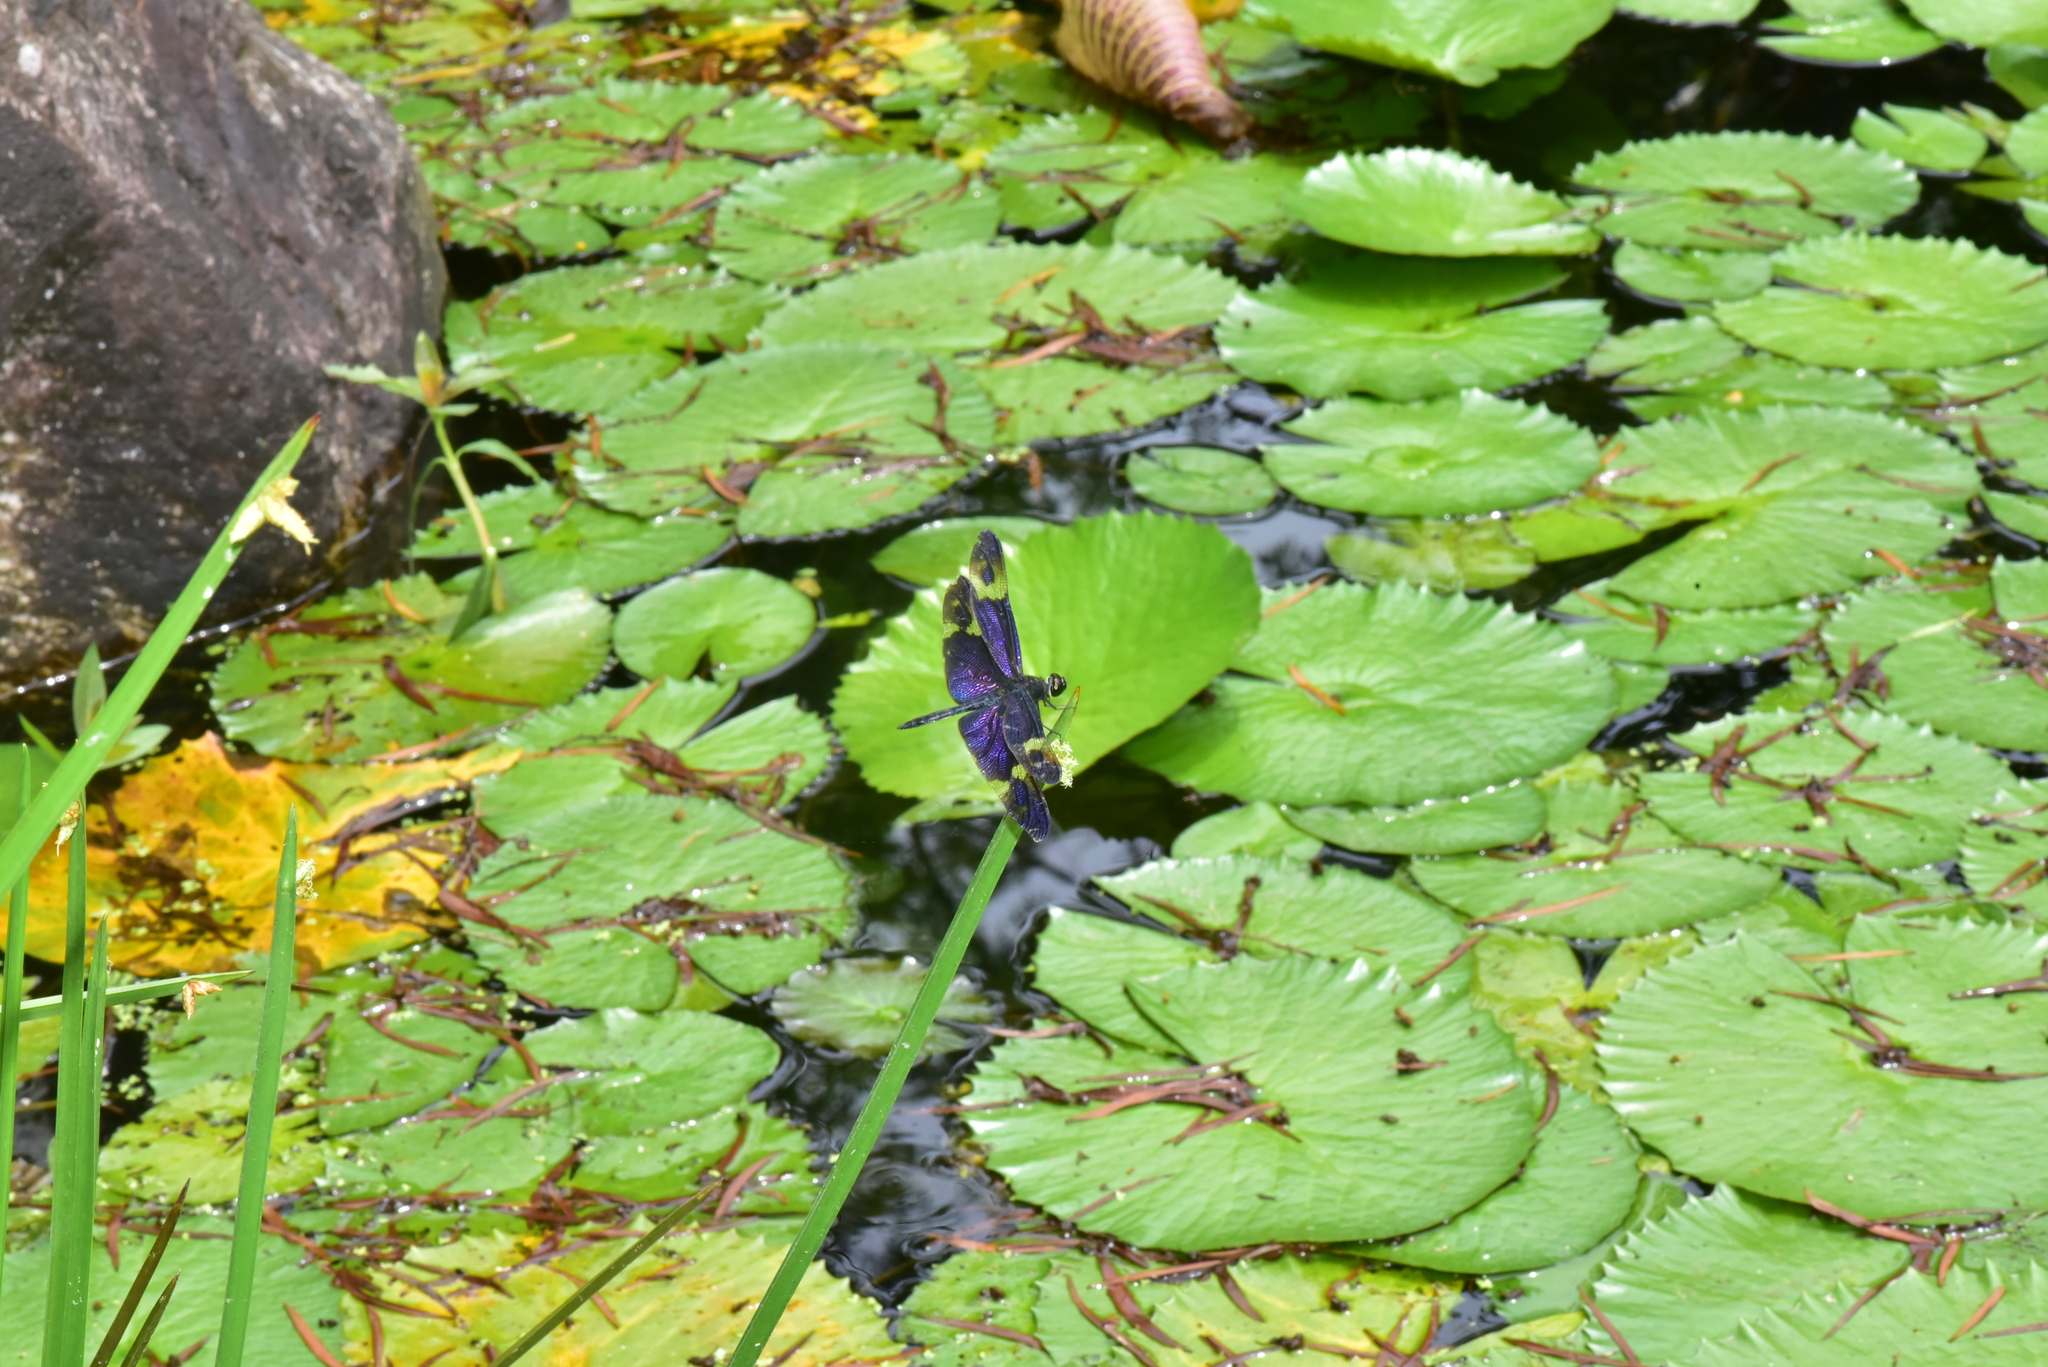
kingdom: Animalia
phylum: Arthropoda
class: Insecta
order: Odonata
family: Libellulidae
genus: Rhyothemis
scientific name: Rhyothemis regia
